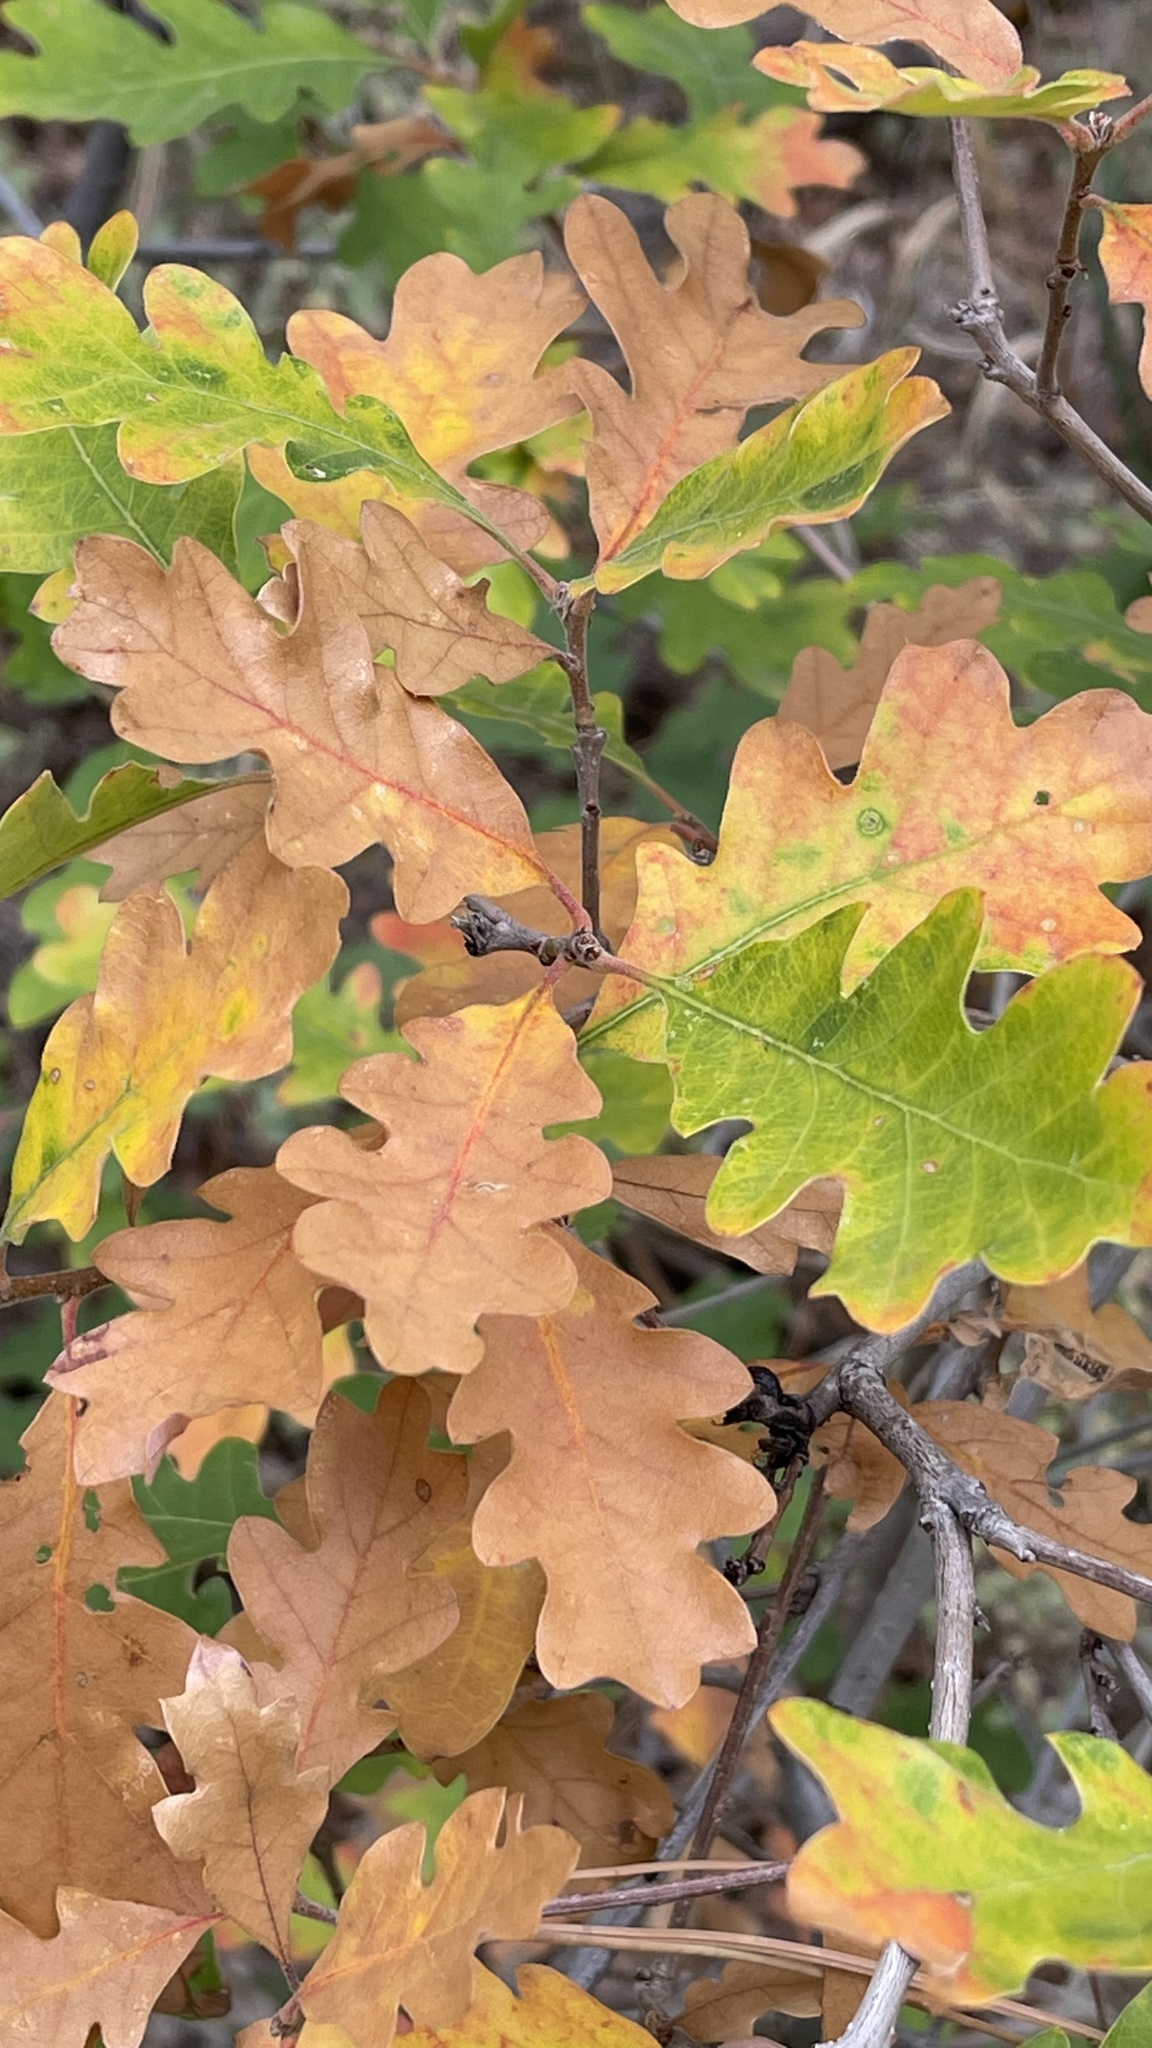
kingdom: Plantae
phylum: Tracheophyta
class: Magnoliopsida
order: Fagales
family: Fagaceae
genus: Quercus
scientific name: Quercus gambelii
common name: Gambel oak
